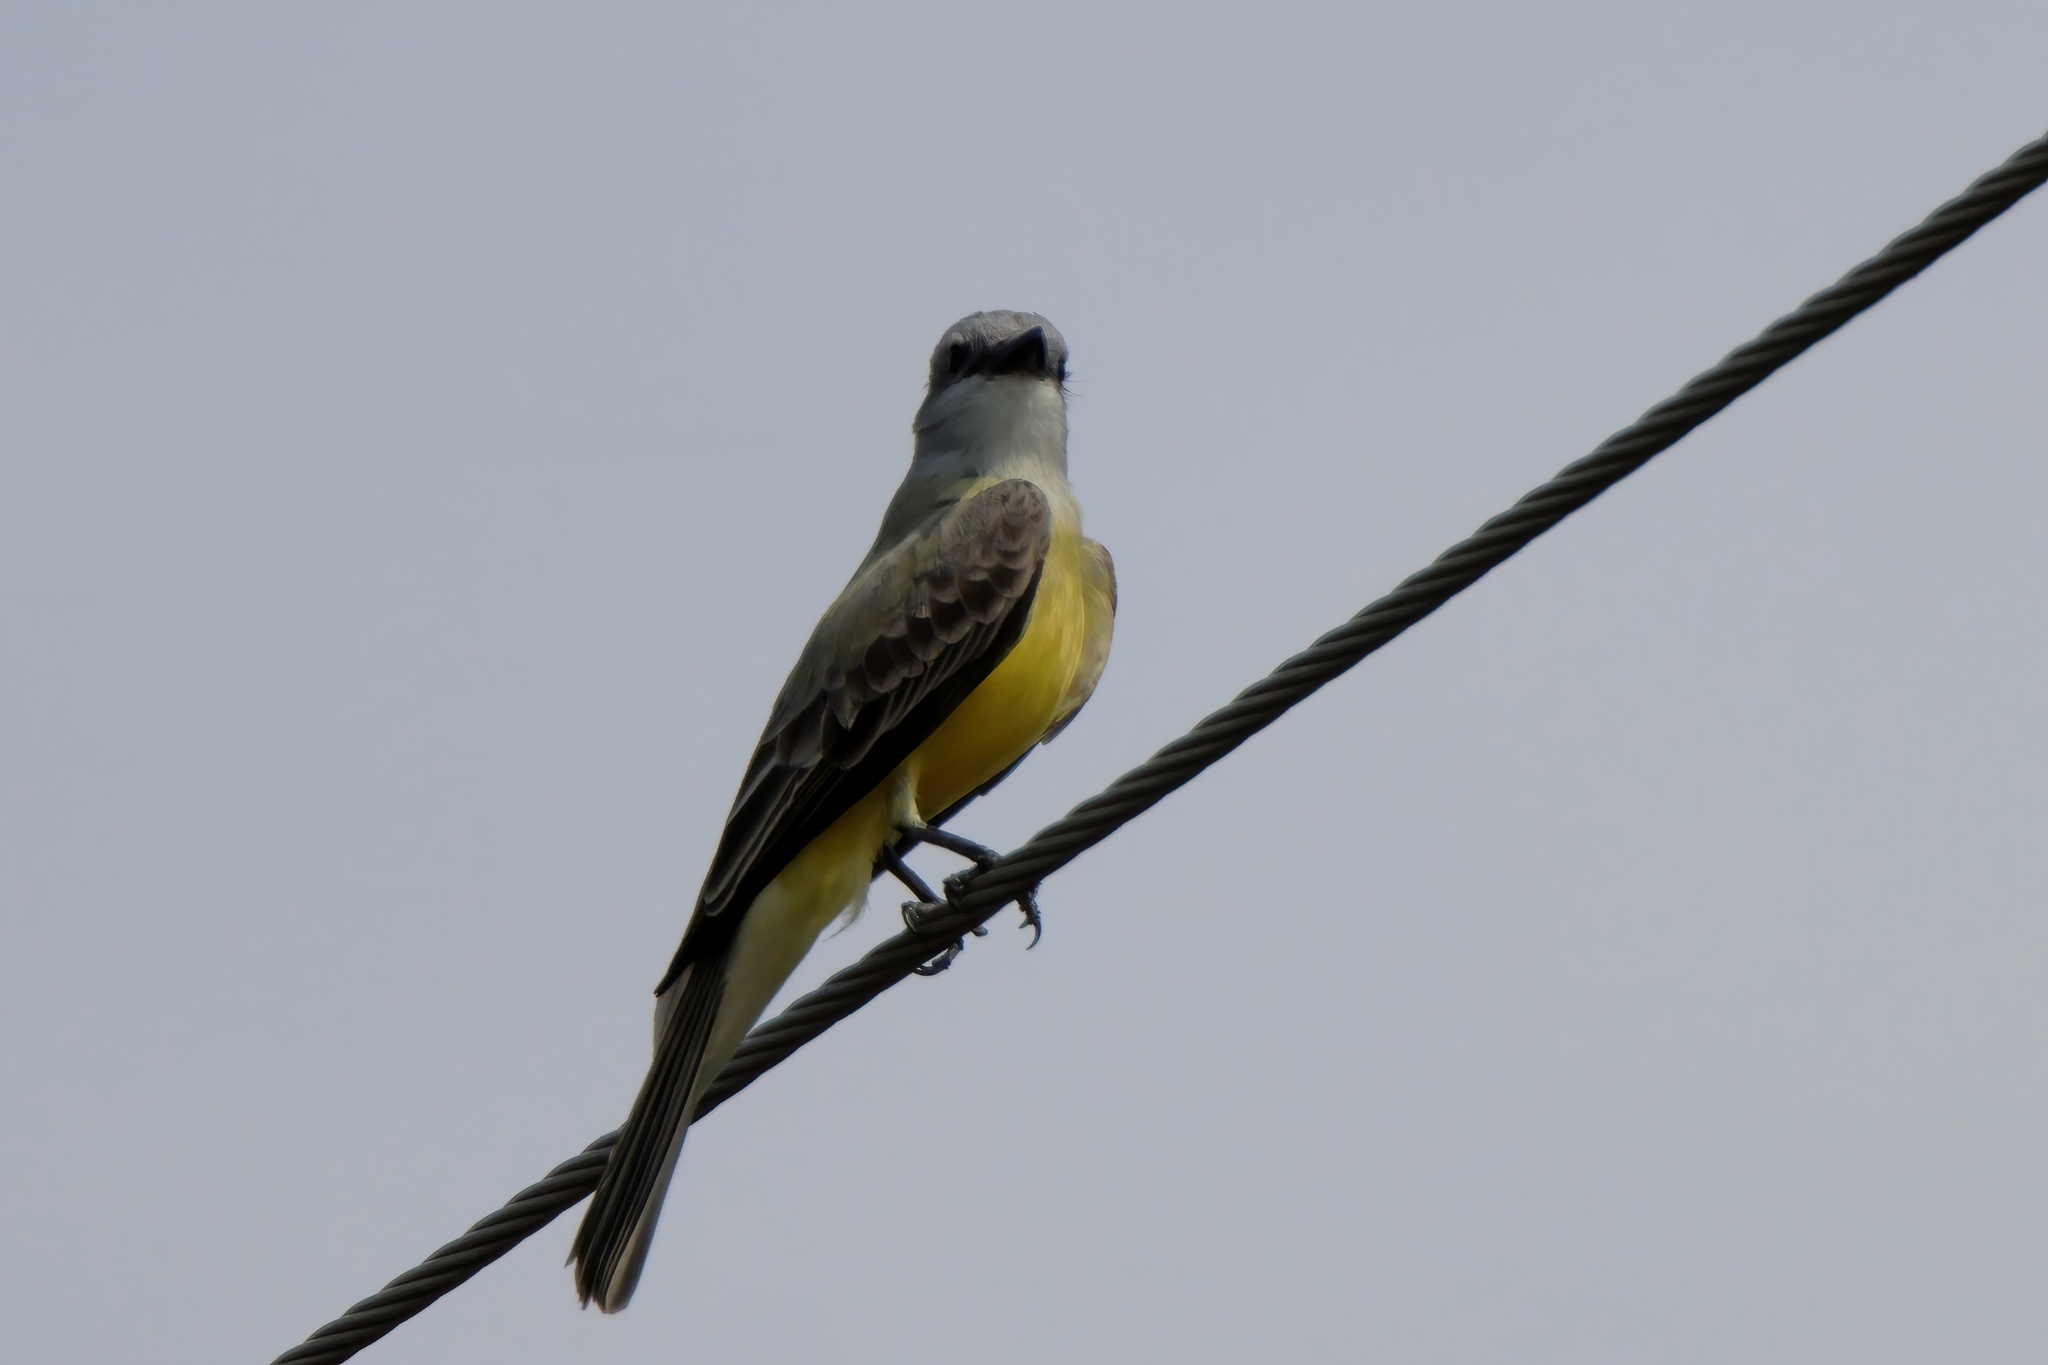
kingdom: Animalia
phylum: Chordata
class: Aves
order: Passeriformes
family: Tyrannidae
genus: Tyrannus
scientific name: Tyrannus couchii
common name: Couch's kingbird
